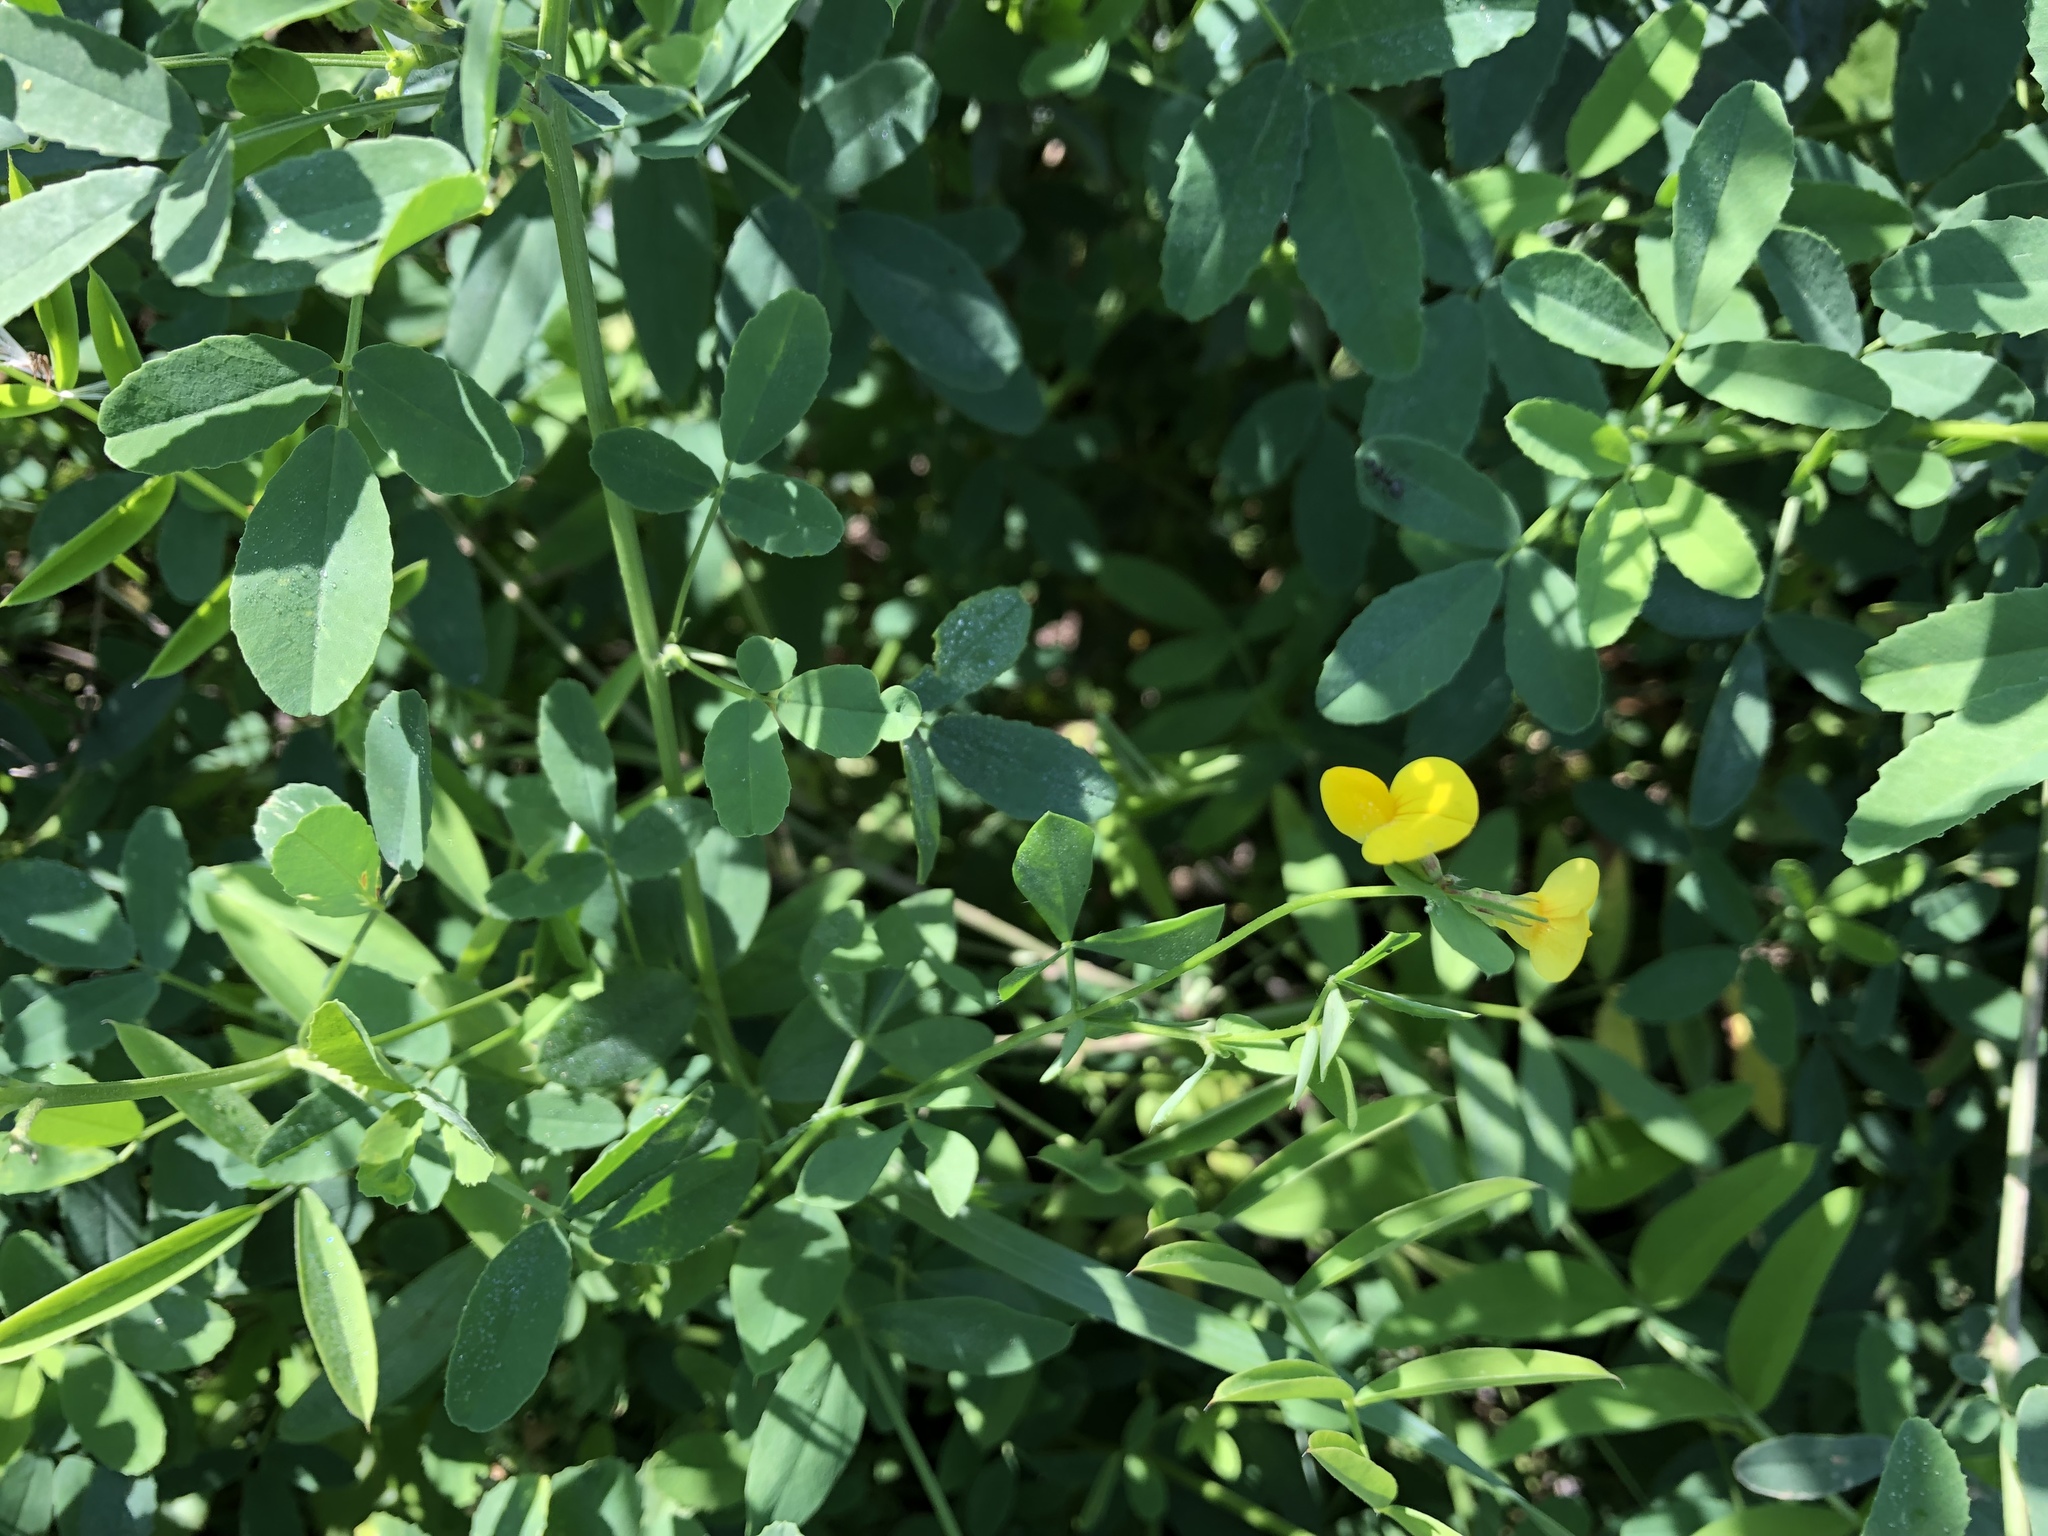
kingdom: Plantae
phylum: Tracheophyta
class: Magnoliopsida
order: Fabales
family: Fabaceae
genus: Lotus
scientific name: Lotus corniculatus
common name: Common bird's-foot-trefoil
